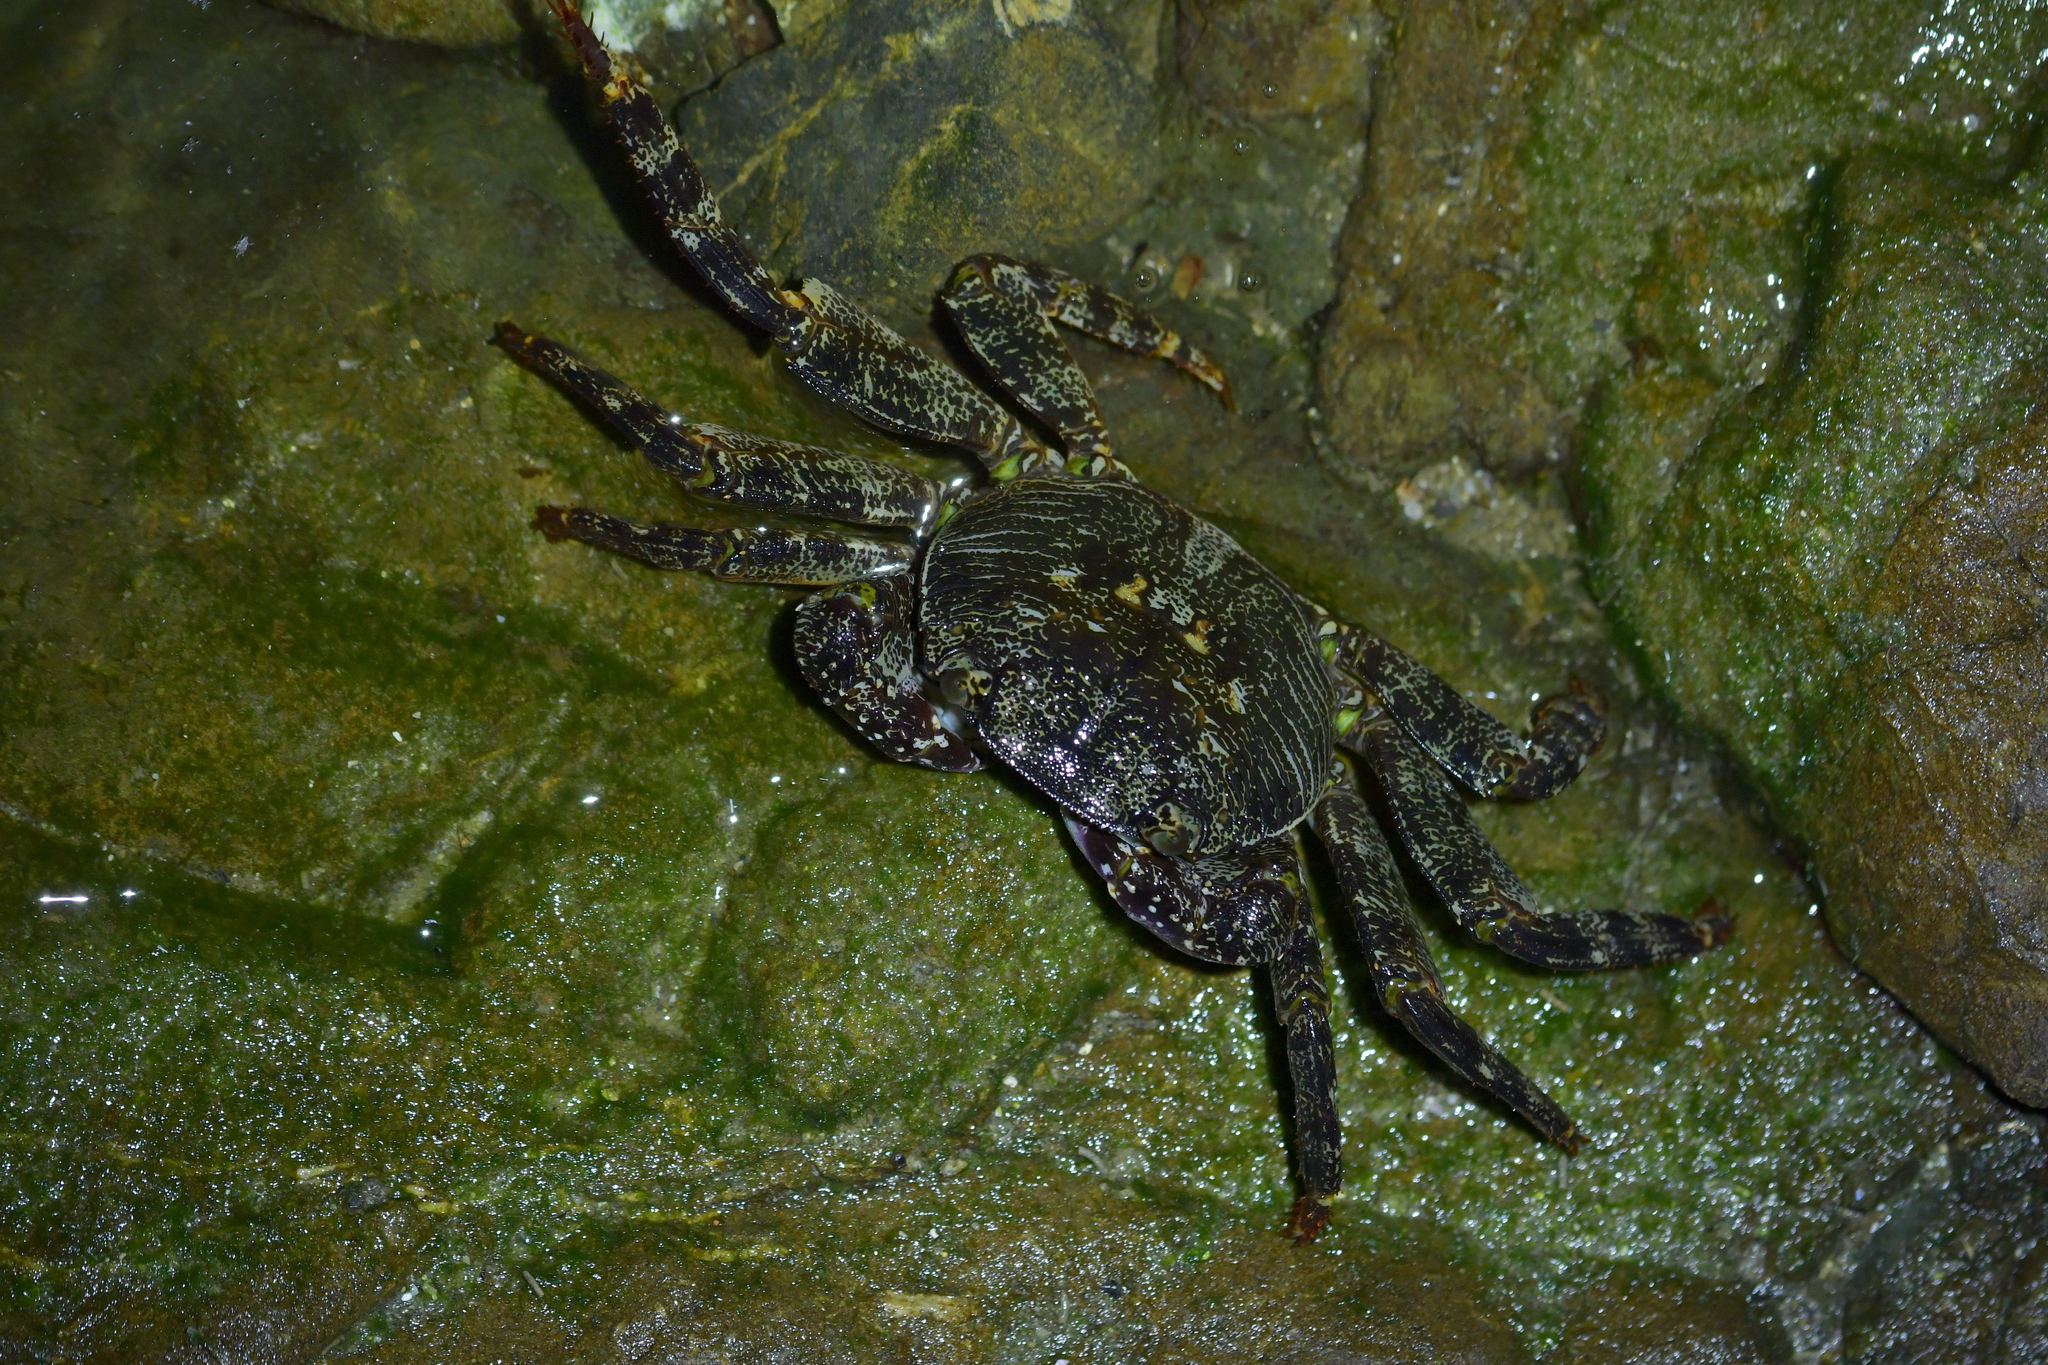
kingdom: Animalia
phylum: Arthropoda
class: Malacostraca
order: Decapoda
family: Grapsidae
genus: Leptograpsus
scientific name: Leptograpsus variegatus
